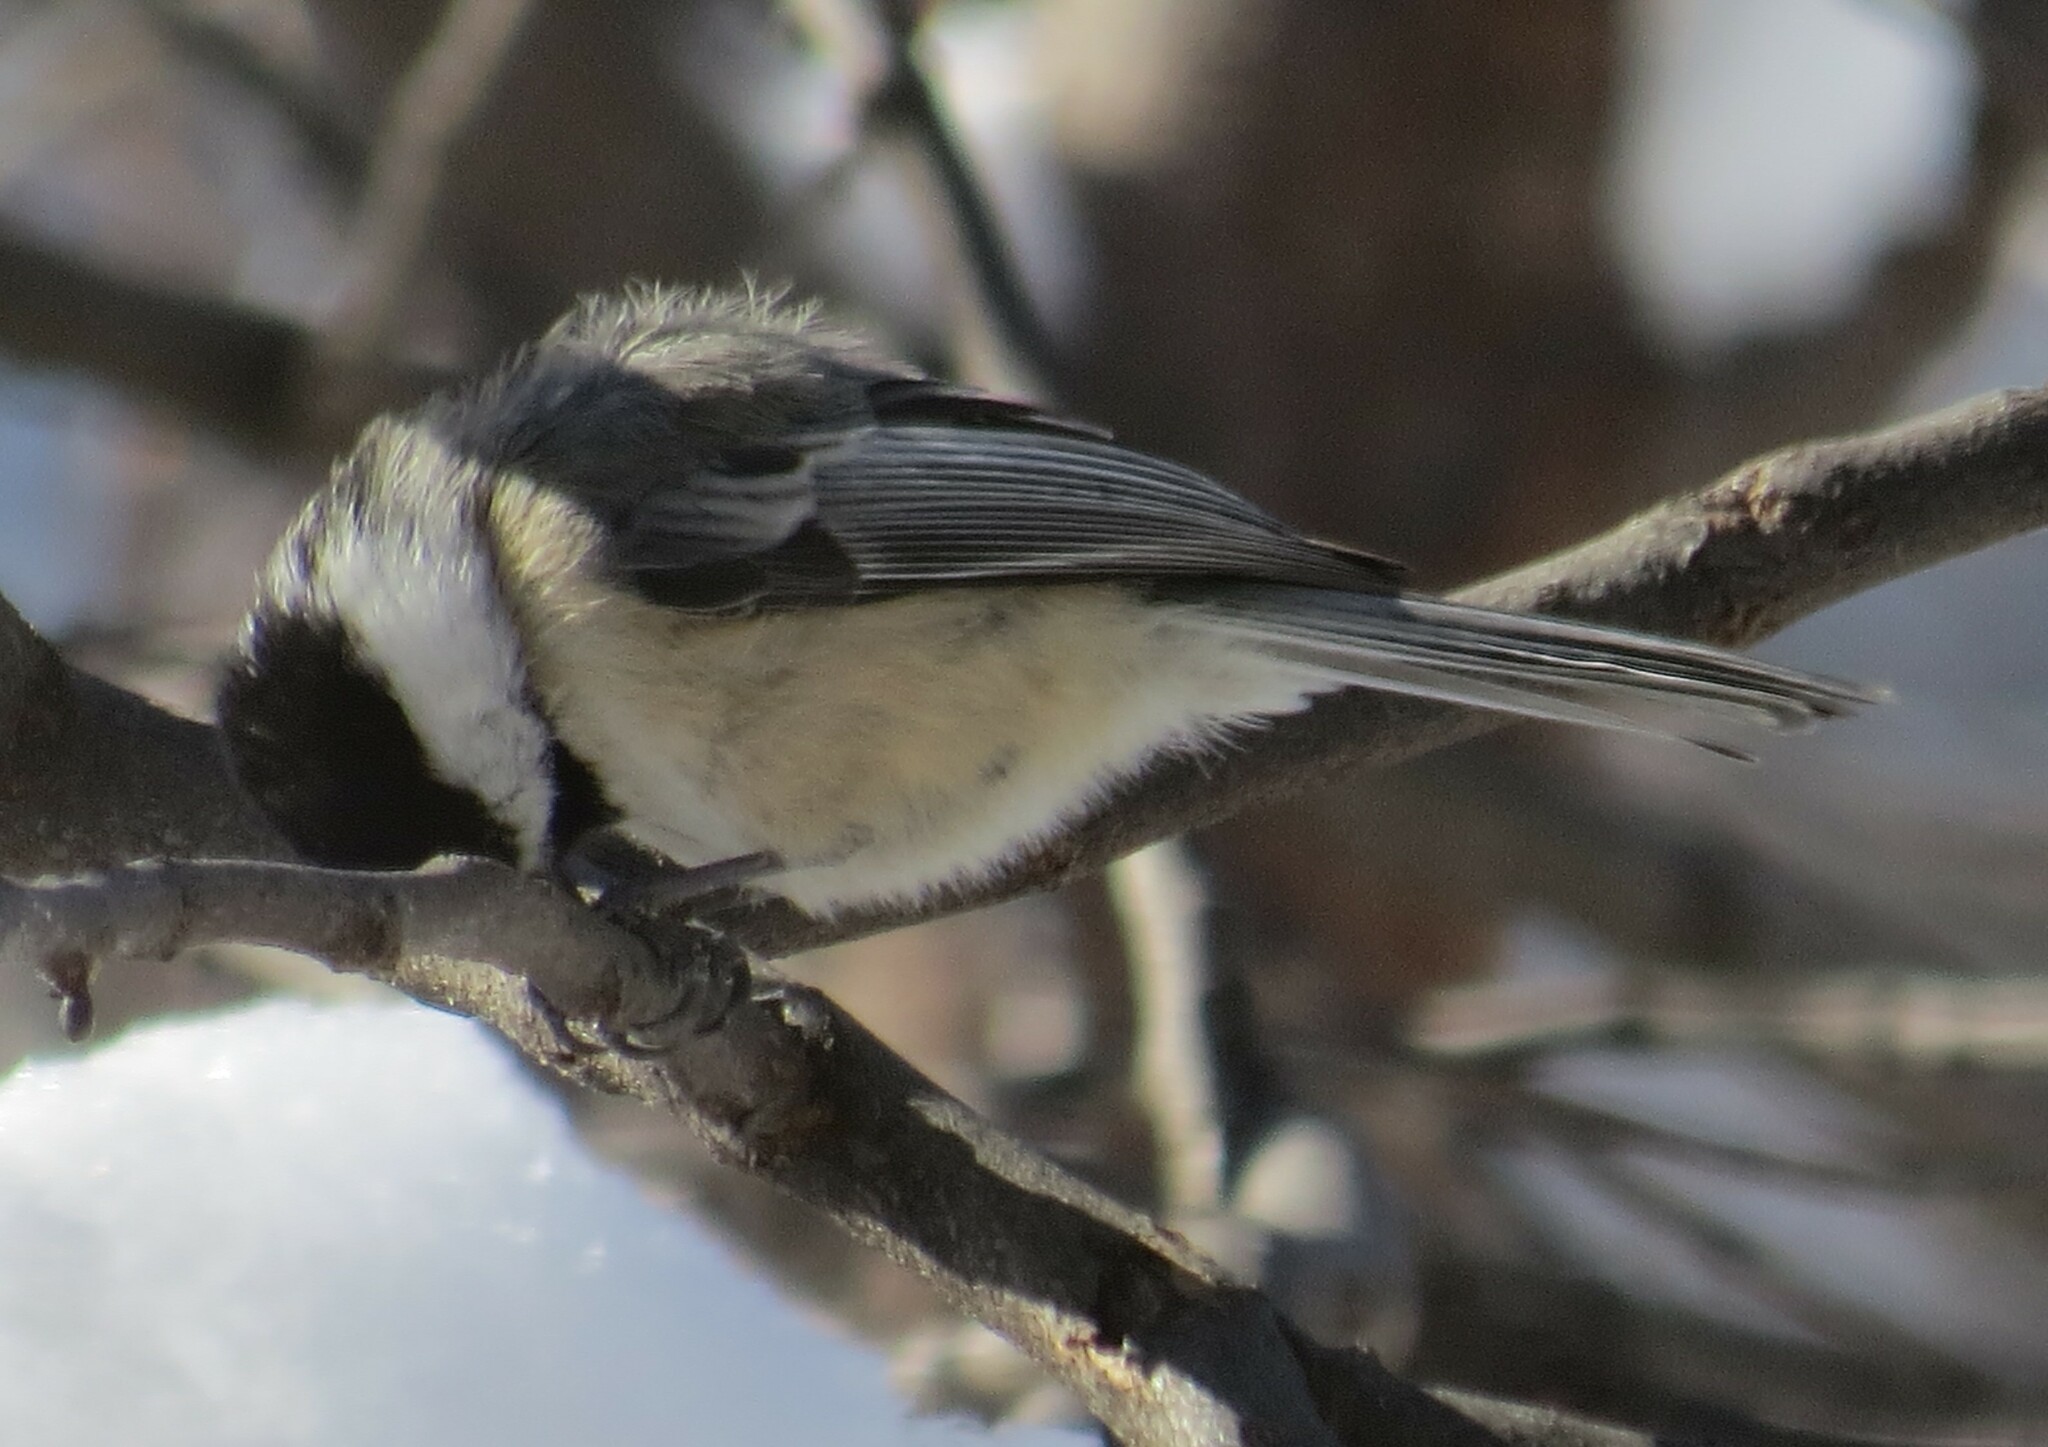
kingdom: Animalia
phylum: Chordata
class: Aves
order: Passeriformes
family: Paridae
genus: Poecile
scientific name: Poecile atricapillus
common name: Black-capped chickadee
